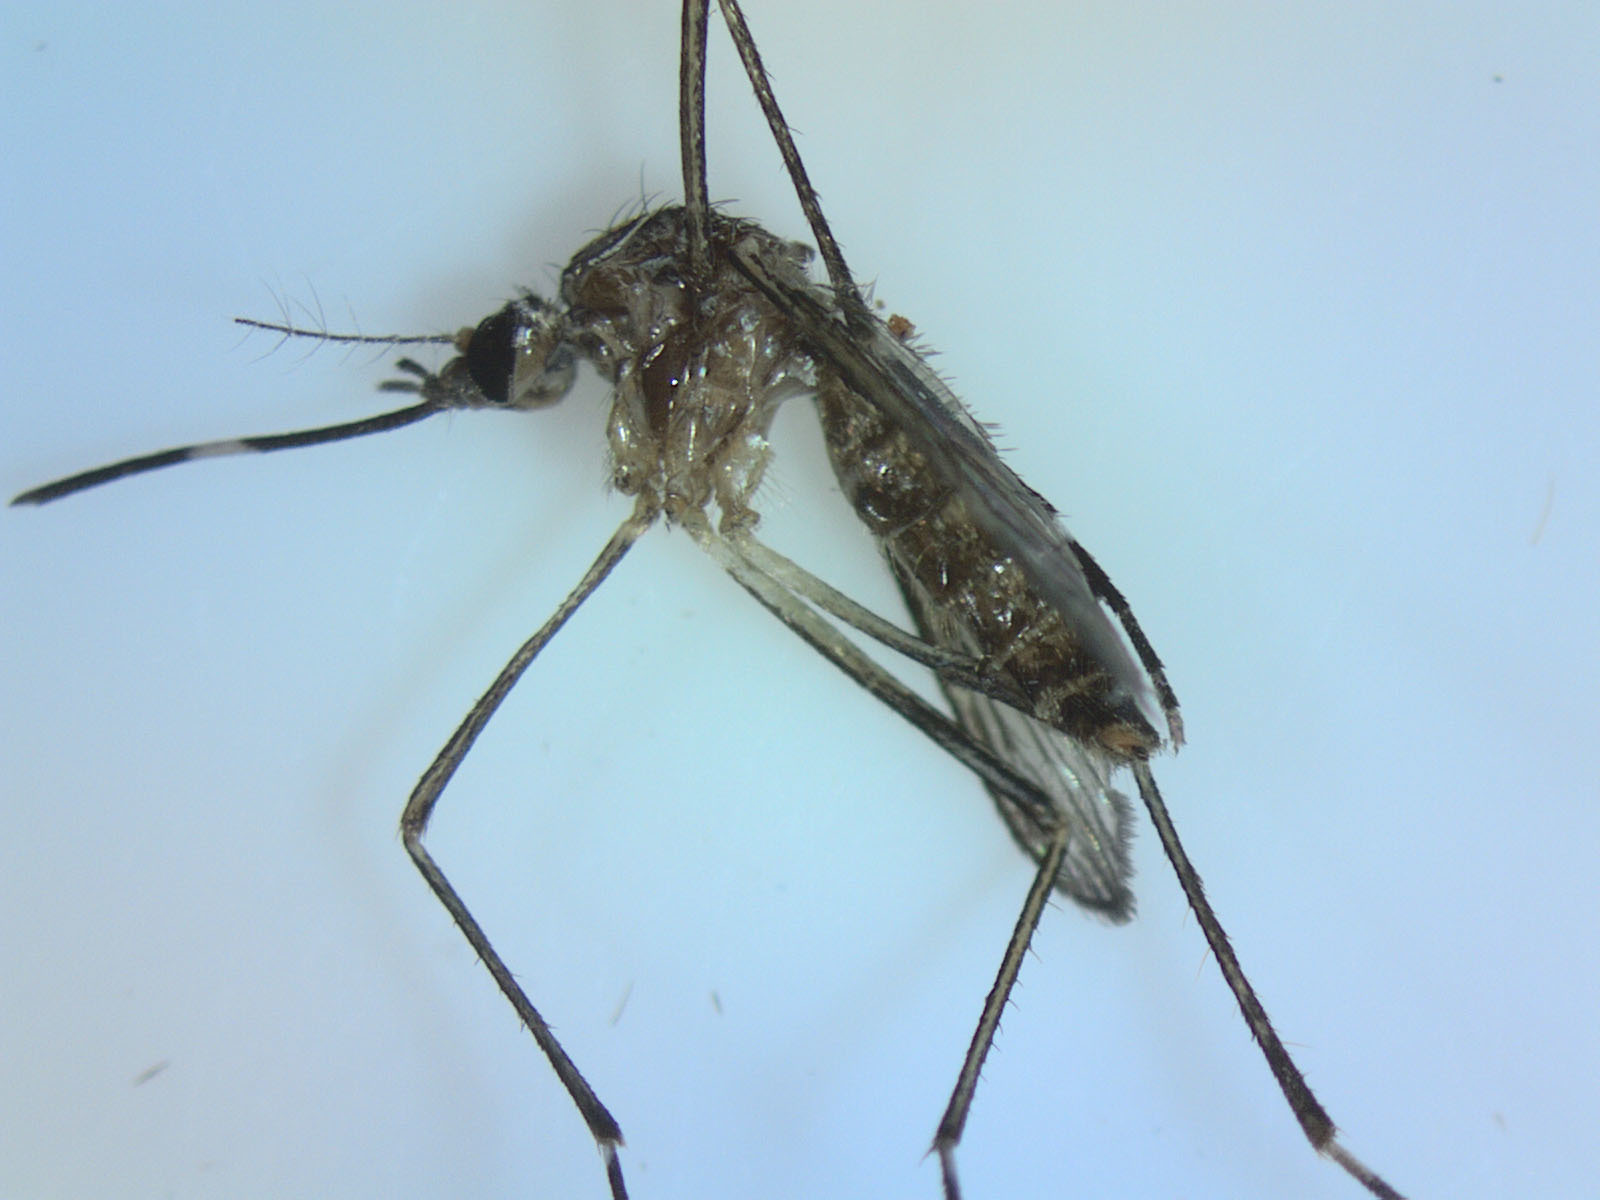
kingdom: Animalia
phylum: Arthropoda
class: Insecta
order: Diptera
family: Culicidae
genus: Aedes
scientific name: Aedes notoscriptus
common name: Australian backyard mosquito
